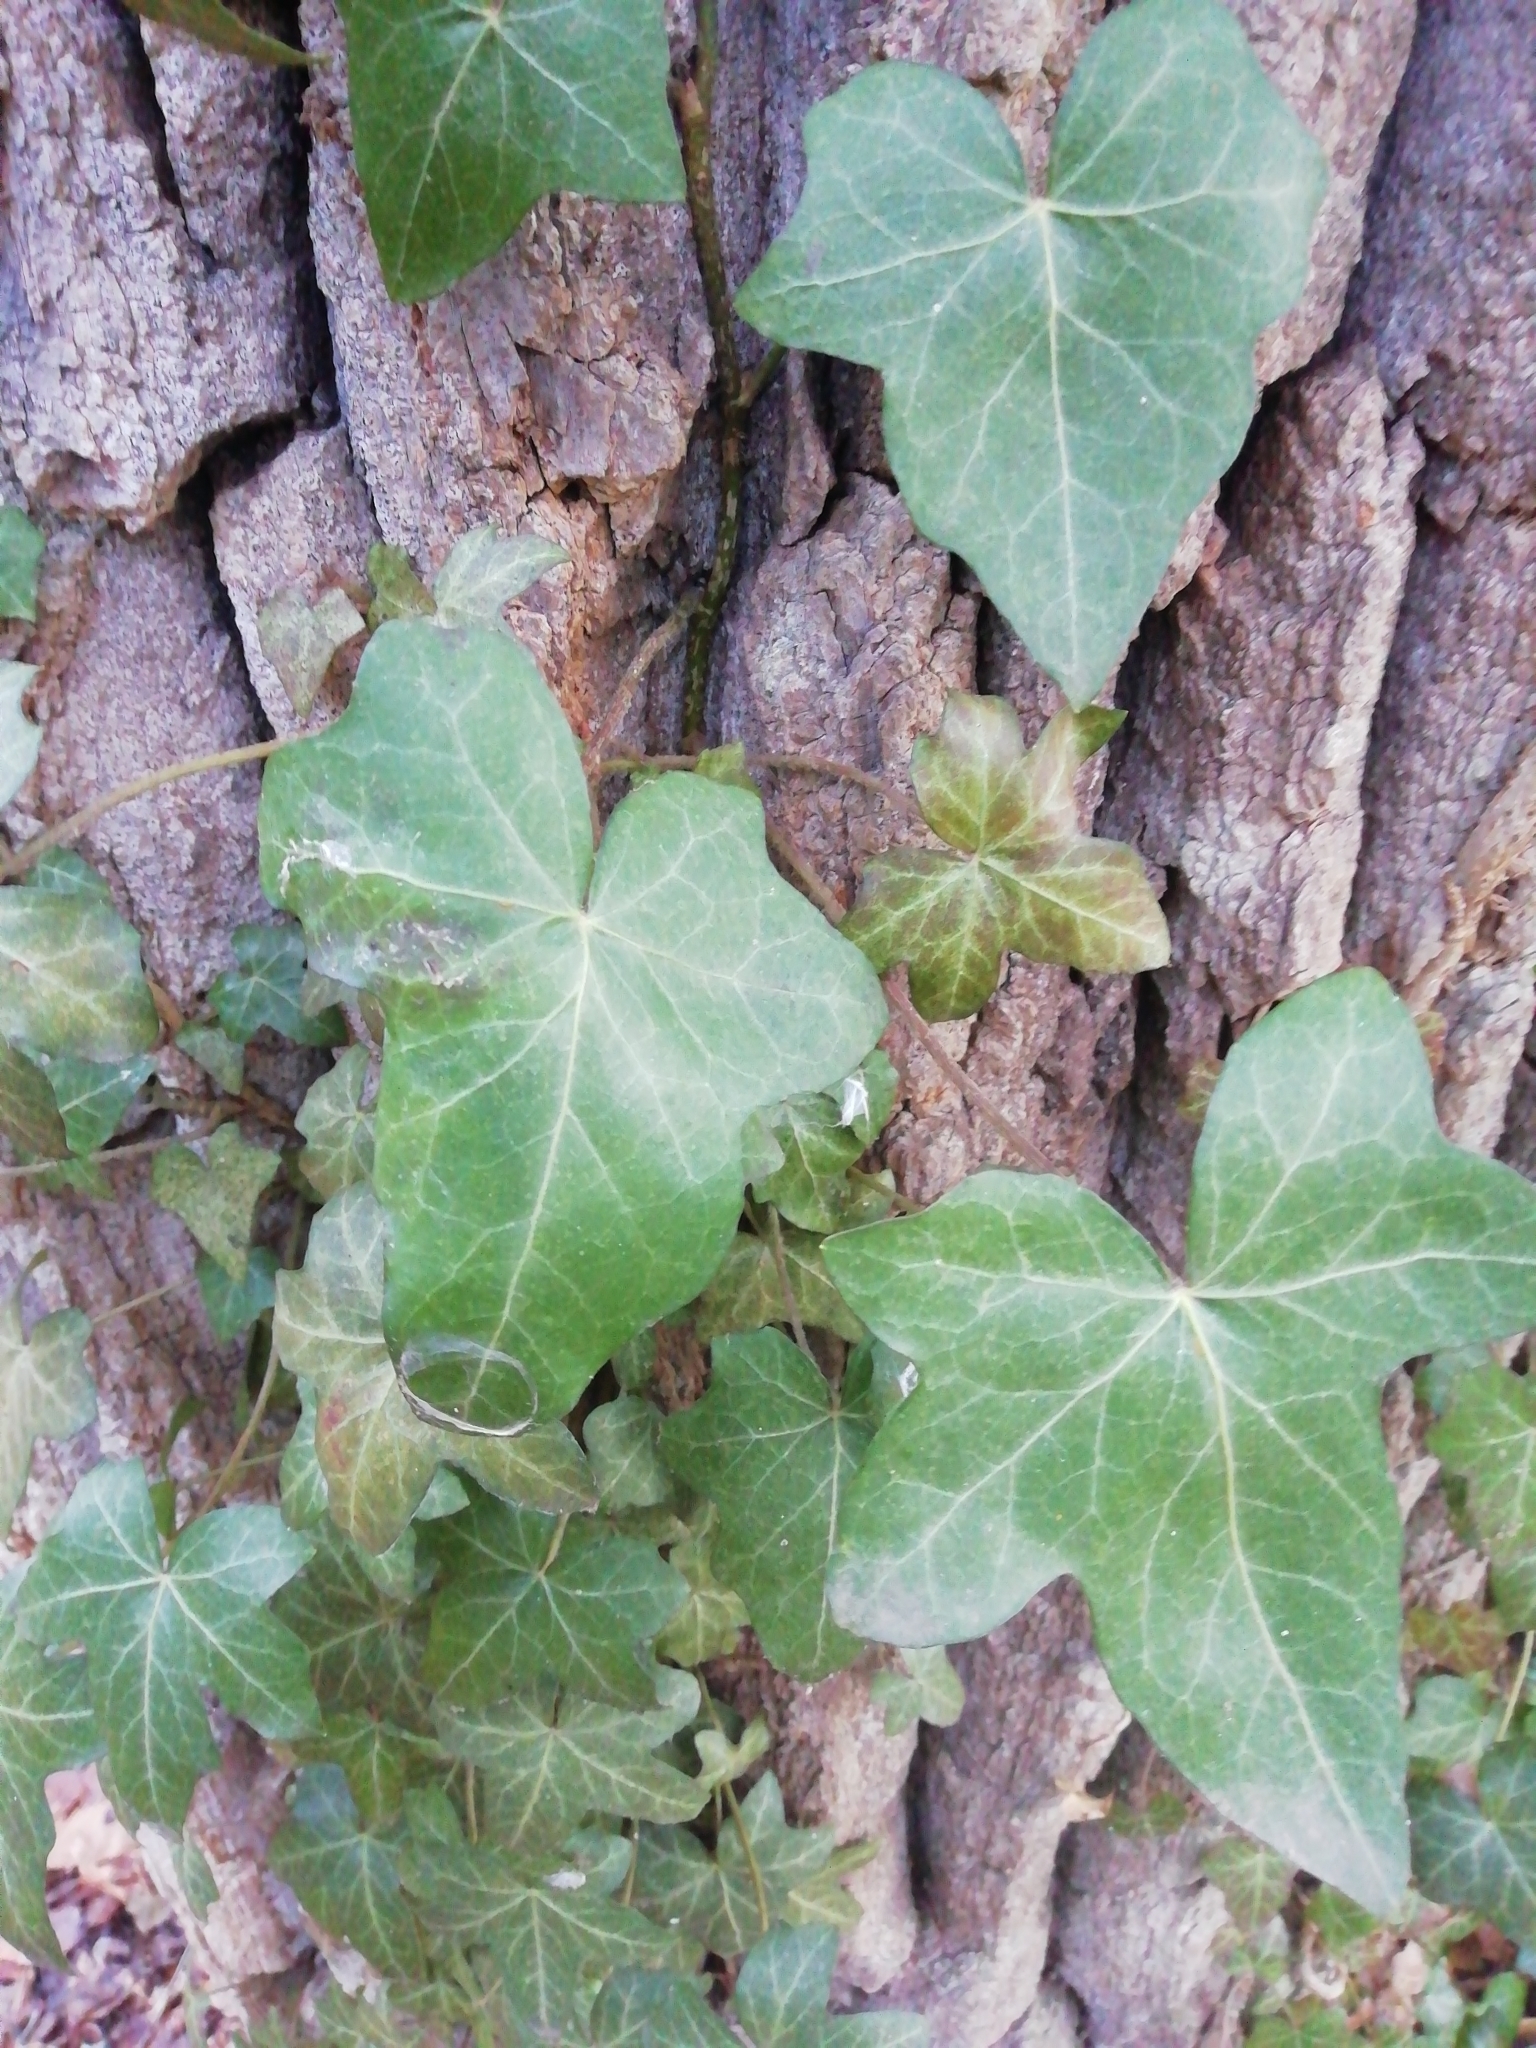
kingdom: Plantae
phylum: Tracheophyta
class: Magnoliopsida
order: Apiales
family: Araliaceae
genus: Hedera
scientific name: Hedera helix
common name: Ivy
